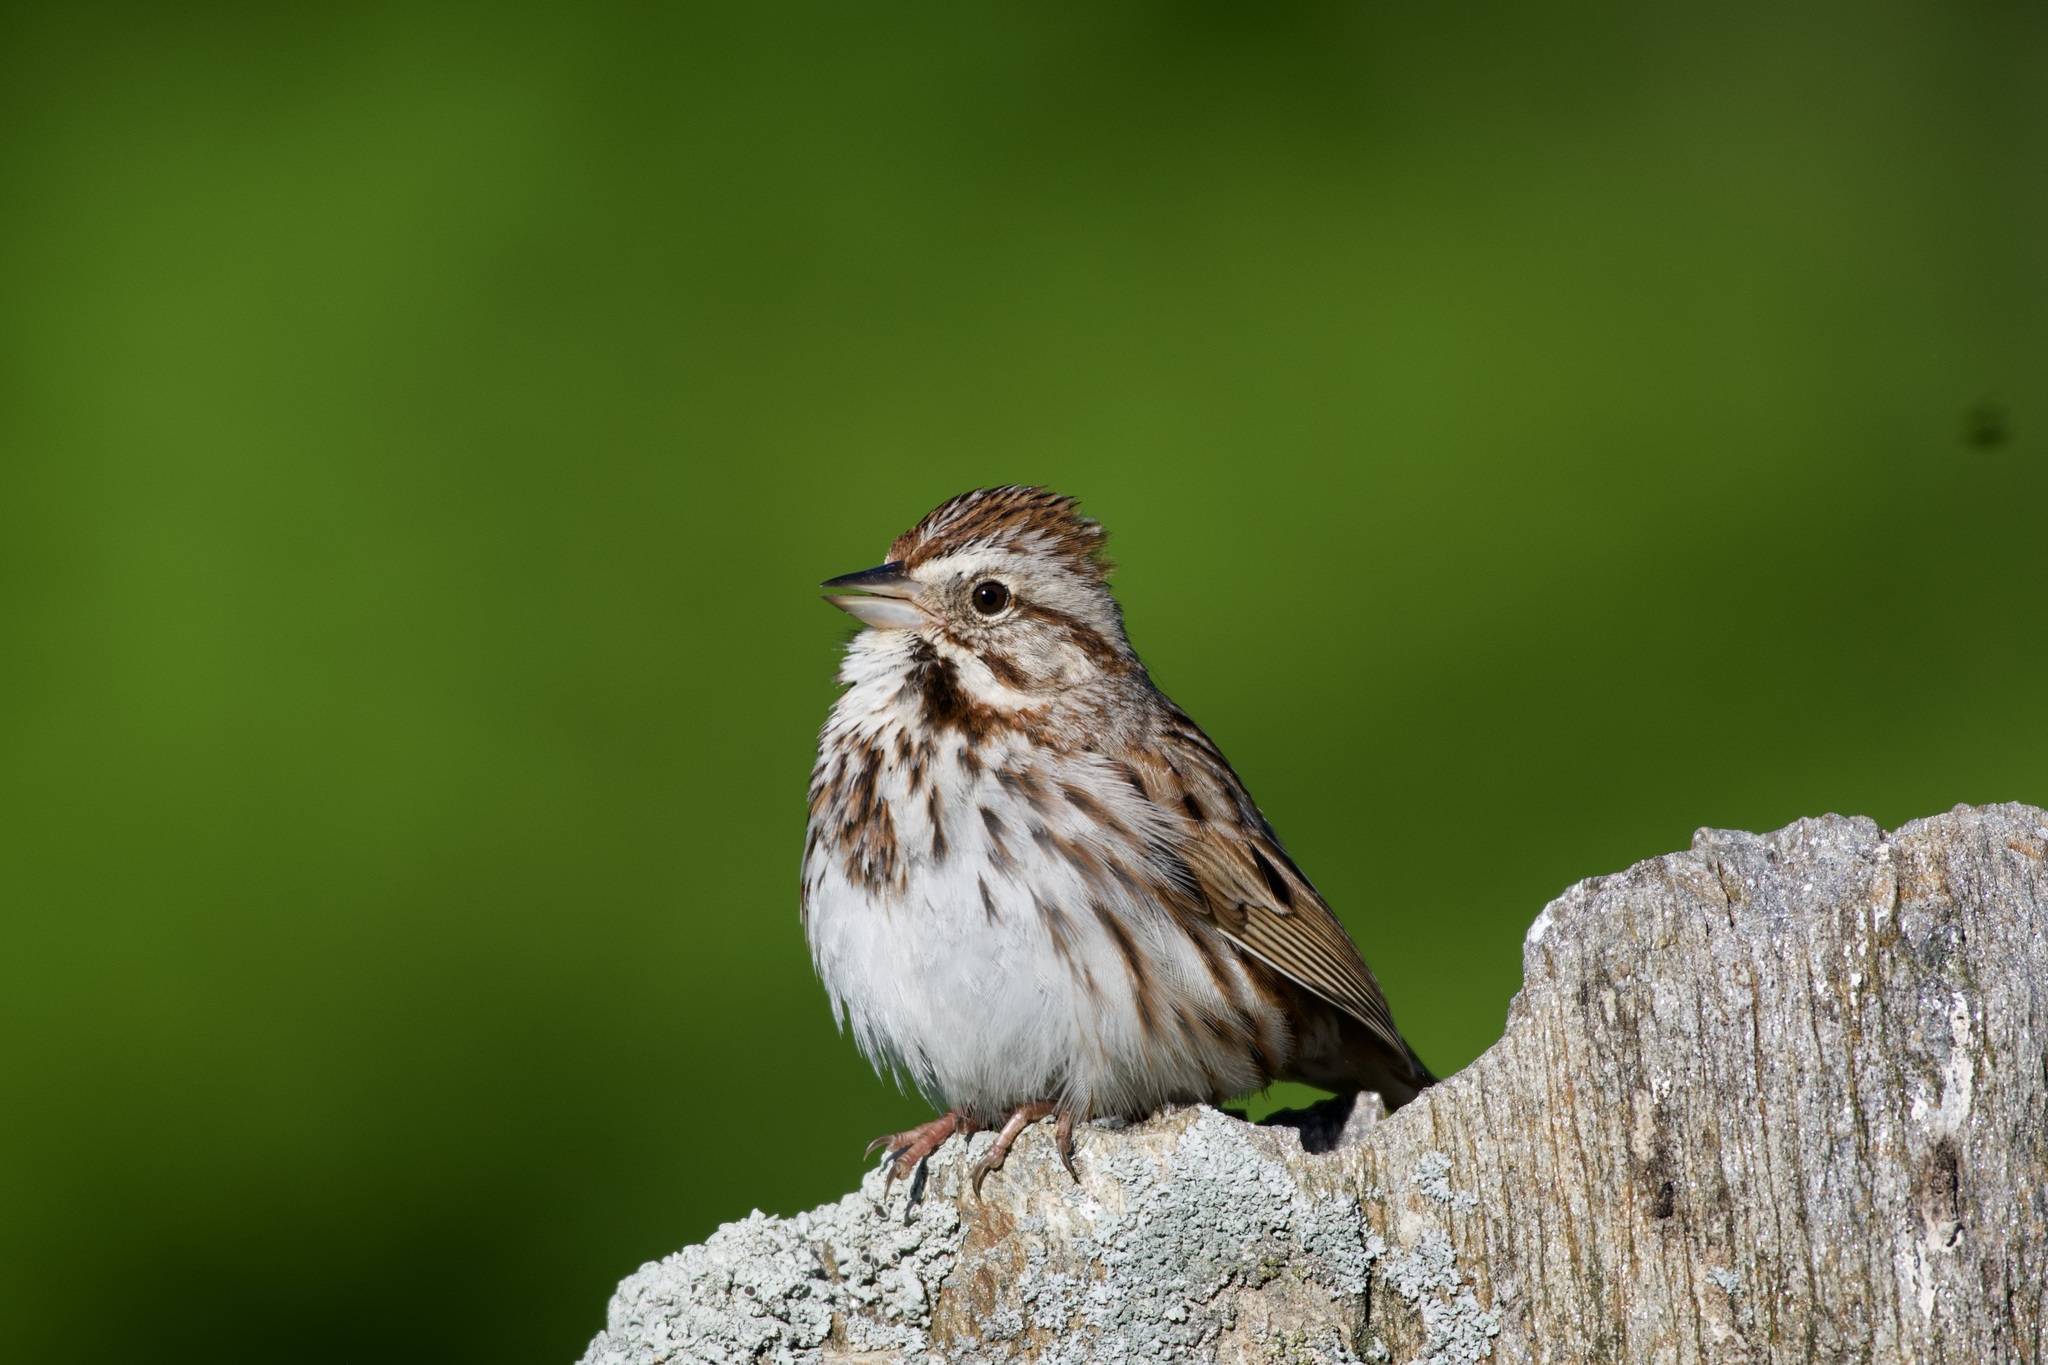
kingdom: Animalia
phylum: Chordata
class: Aves
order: Passeriformes
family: Passerellidae
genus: Melospiza
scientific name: Melospiza melodia
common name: Song sparrow
